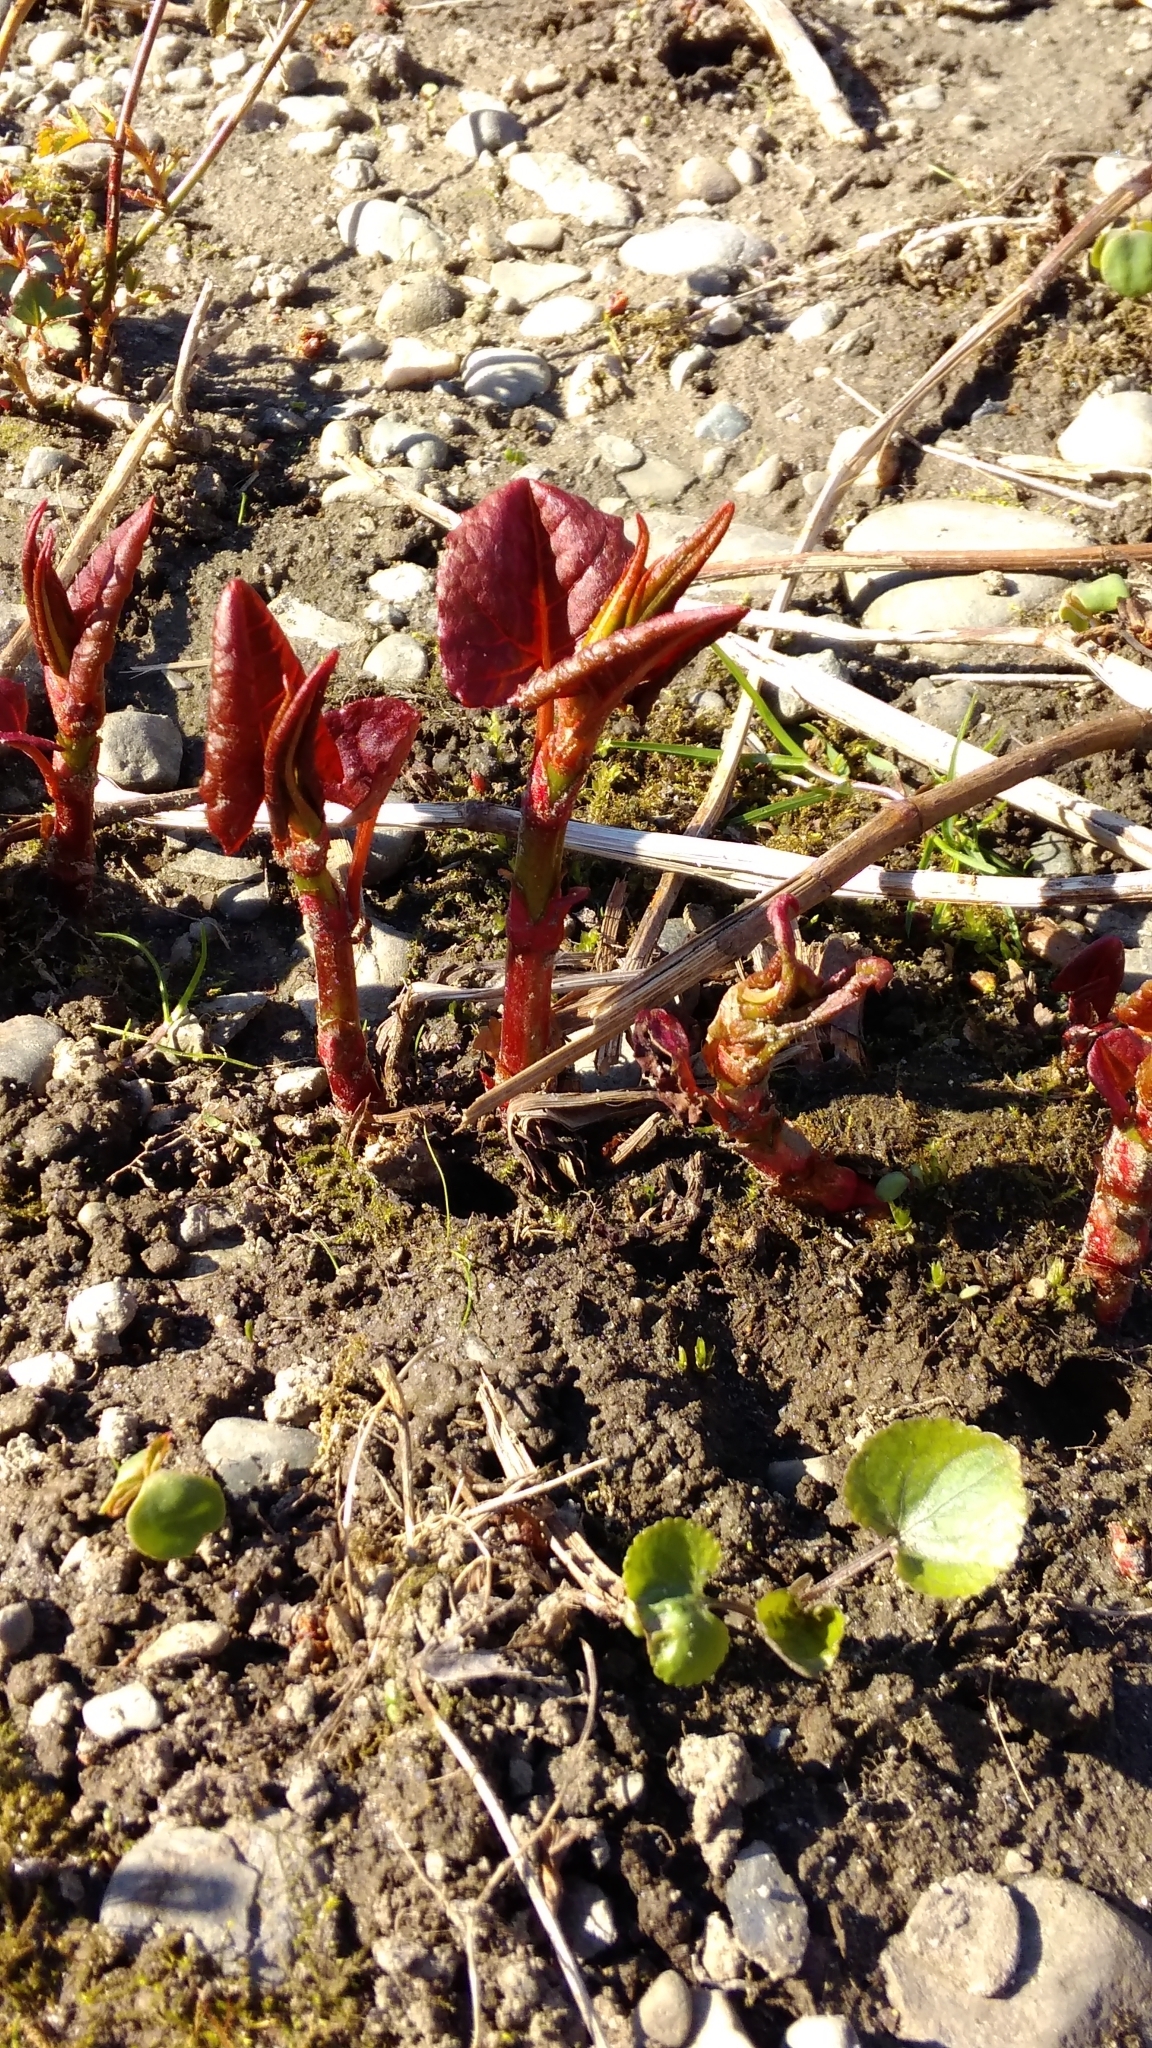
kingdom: Plantae
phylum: Tracheophyta
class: Magnoliopsida
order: Caryophyllales
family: Polygonaceae
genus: Reynoutria
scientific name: Reynoutria japonica
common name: Japanese knotweed
